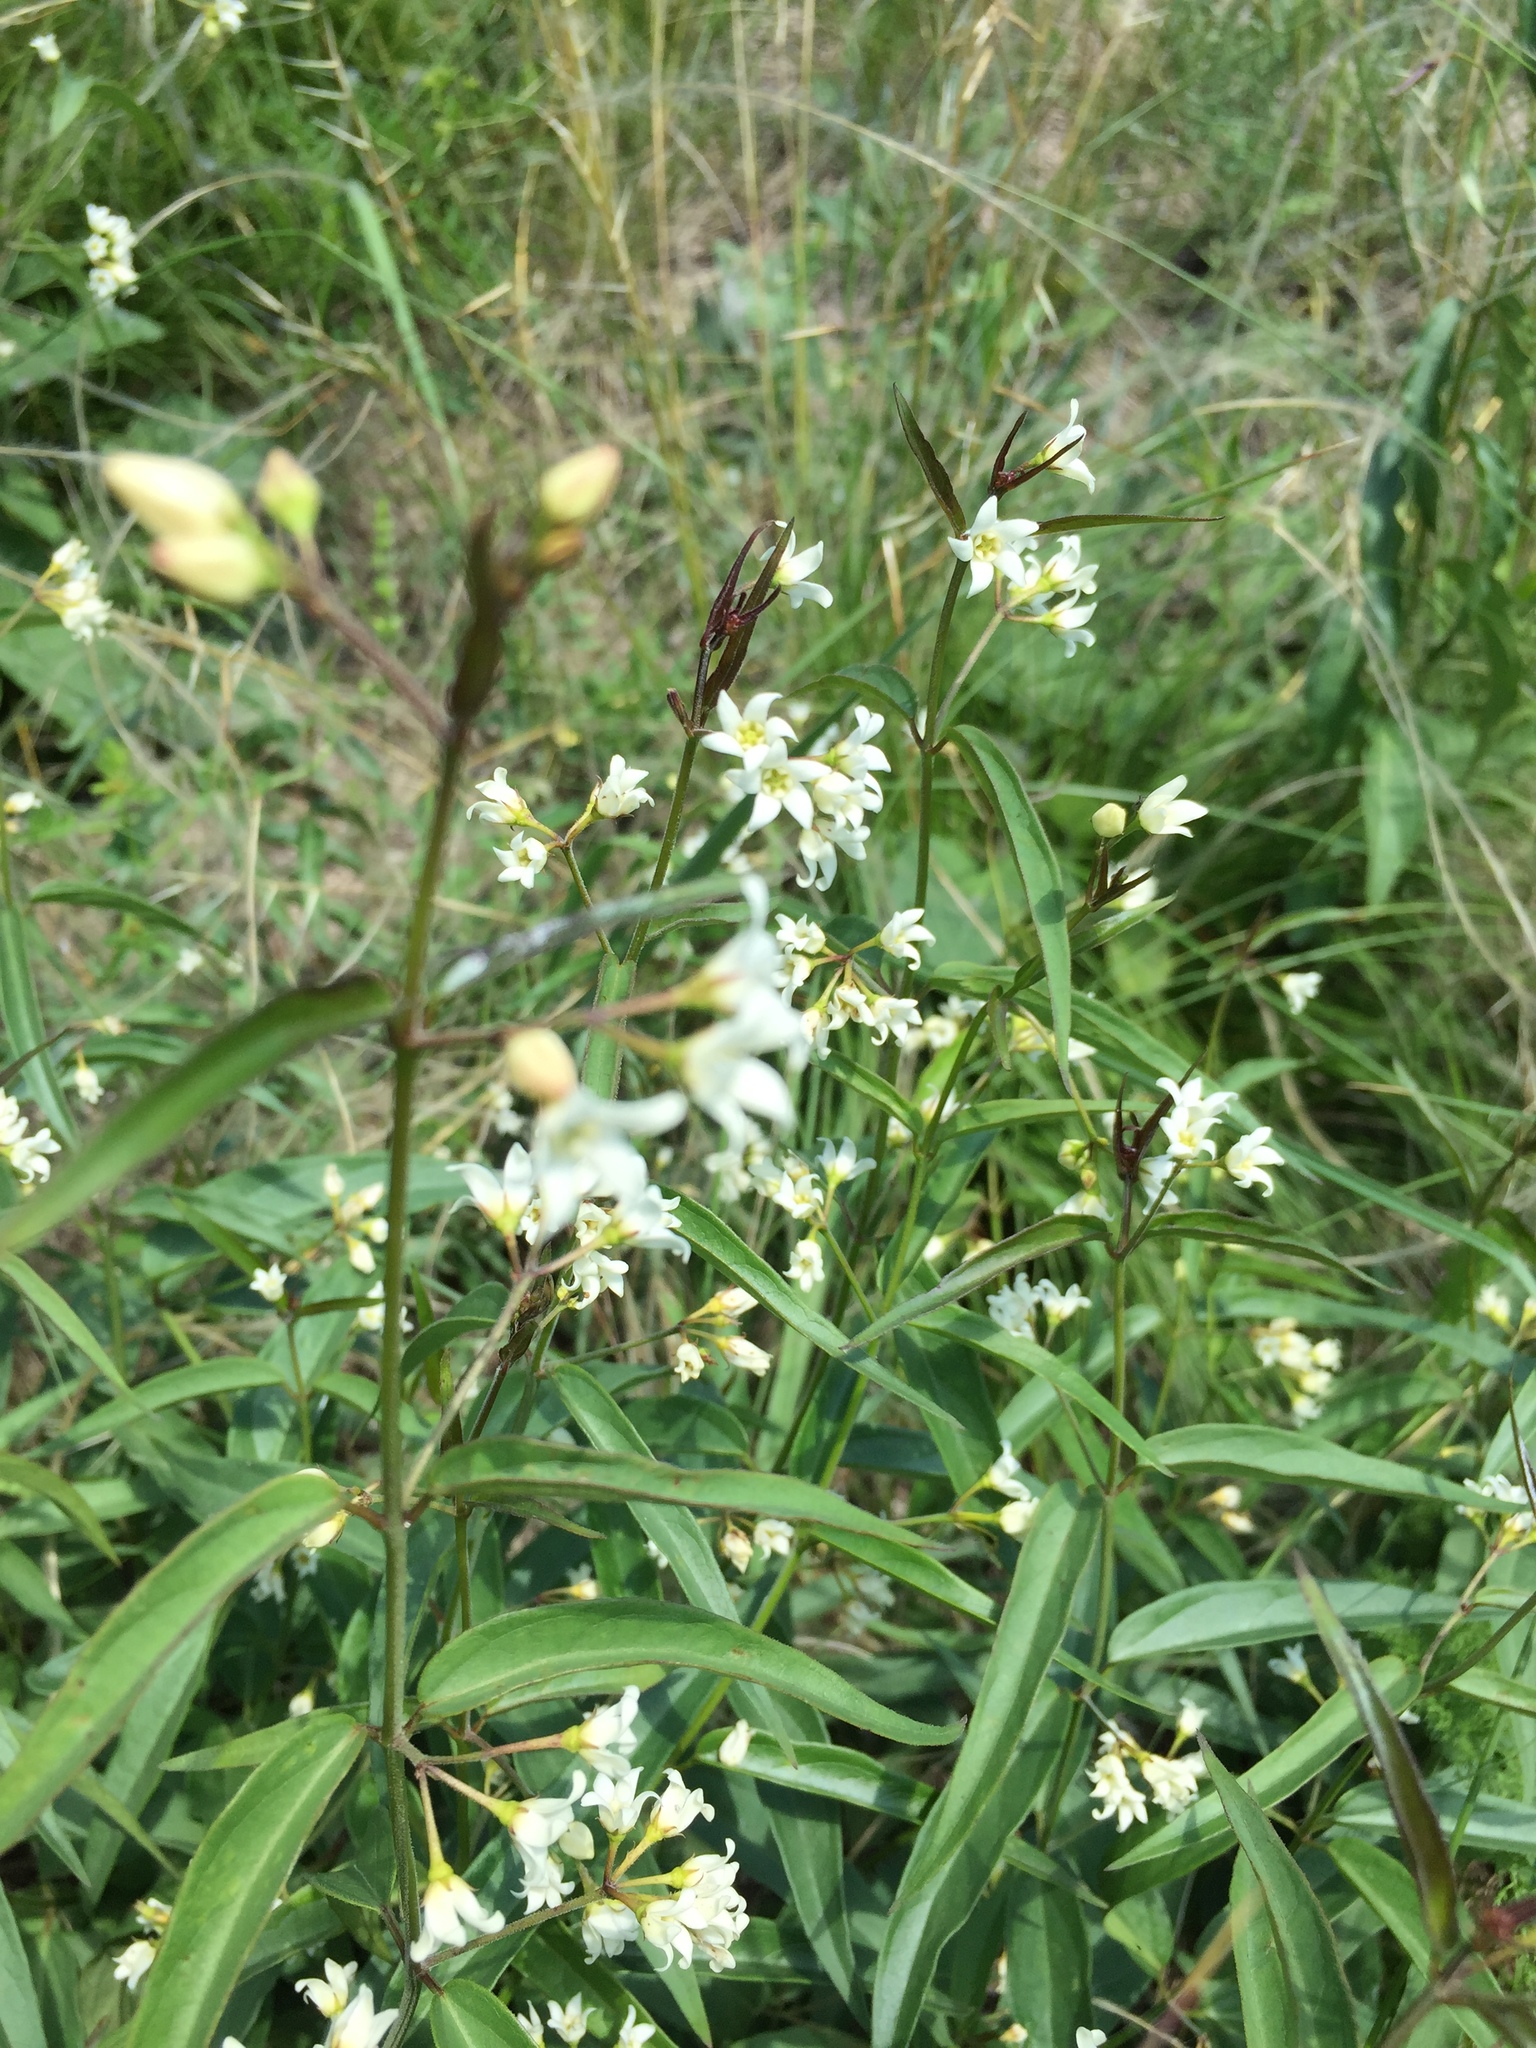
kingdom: Plantae
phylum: Tracheophyta
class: Magnoliopsida
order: Gentianales
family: Apocynaceae
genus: Vincetoxicum
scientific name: Vincetoxicum hirundinaria
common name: White swallowwort
